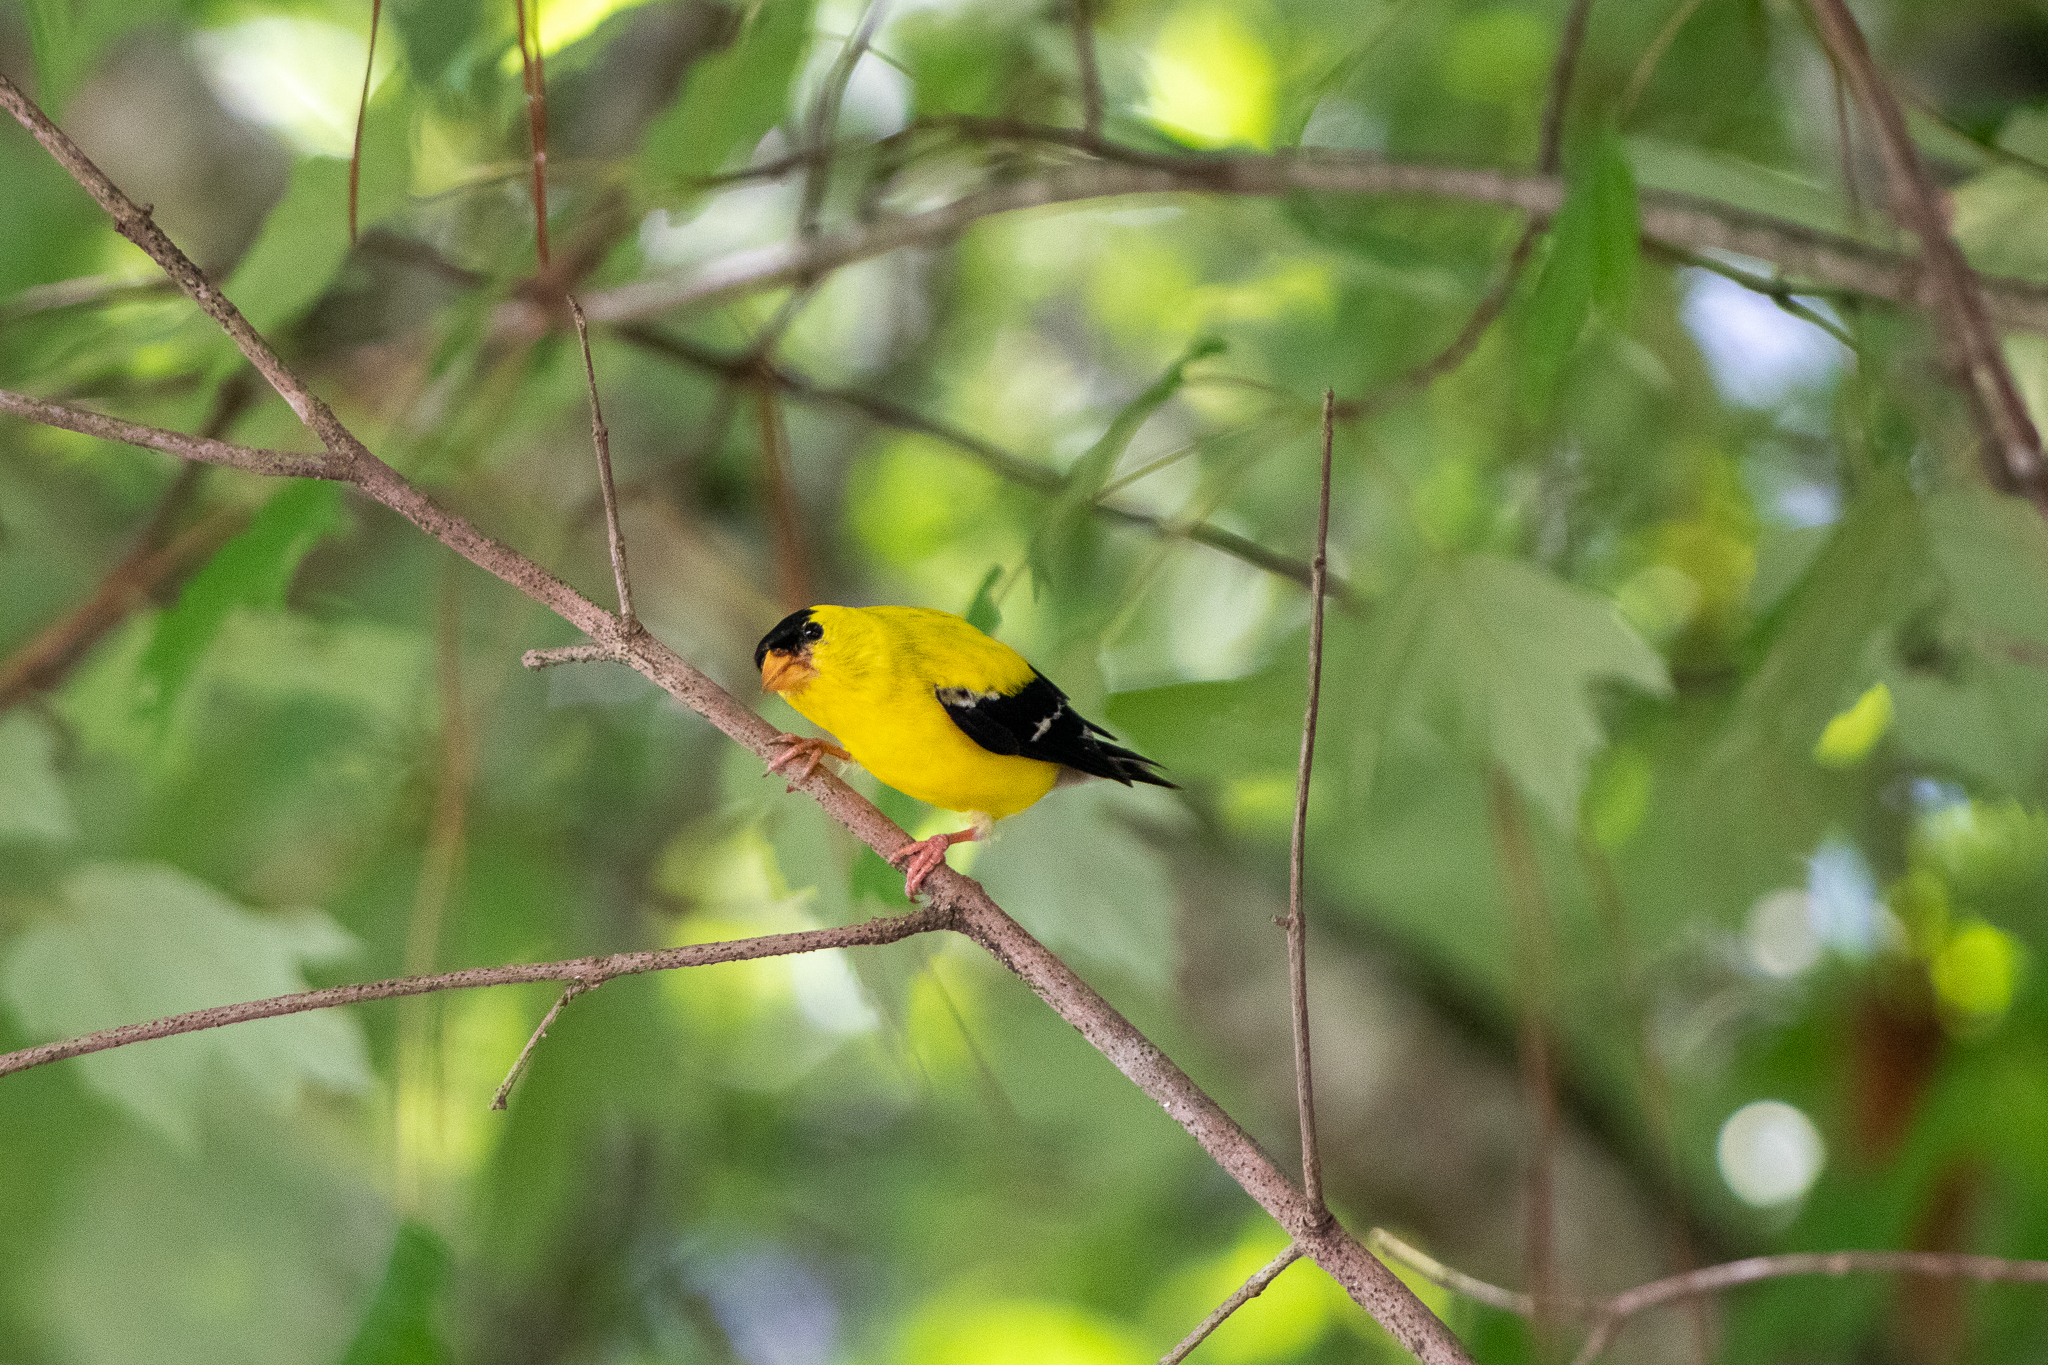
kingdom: Animalia
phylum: Chordata
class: Aves
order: Passeriformes
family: Fringillidae
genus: Spinus
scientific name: Spinus tristis
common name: American goldfinch
